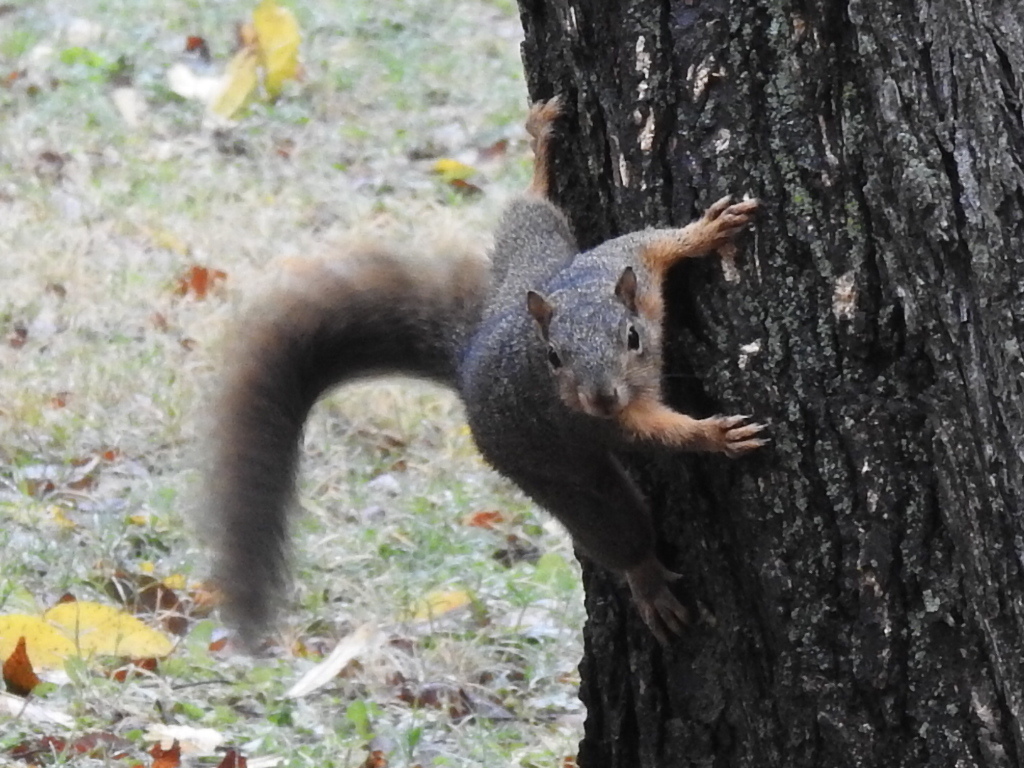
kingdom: Animalia
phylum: Chordata
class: Mammalia
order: Rodentia
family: Sciuridae
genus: Sciurus
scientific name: Sciurus niger
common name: Fox squirrel
